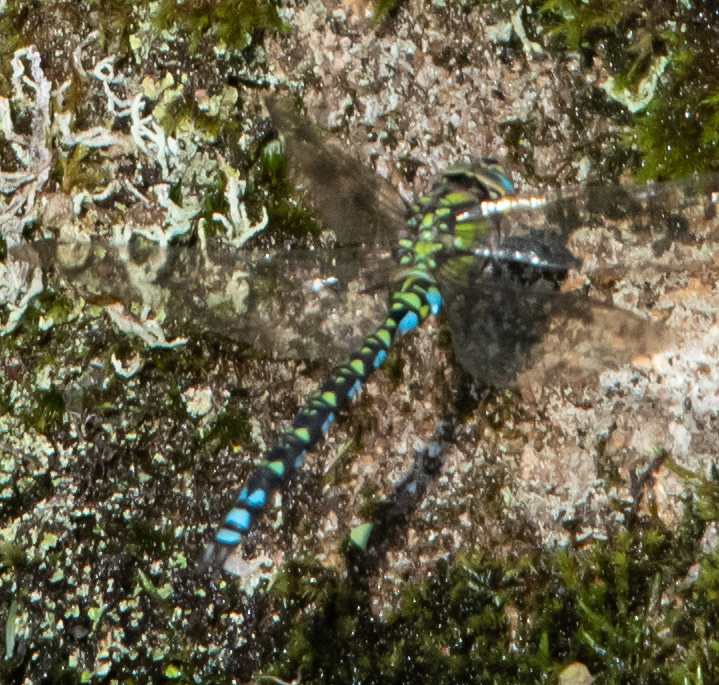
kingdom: Animalia
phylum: Arthropoda
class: Insecta
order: Odonata
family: Aeshnidae
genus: Aeshna
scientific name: Aeshna cyanea
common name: Southern hawker
